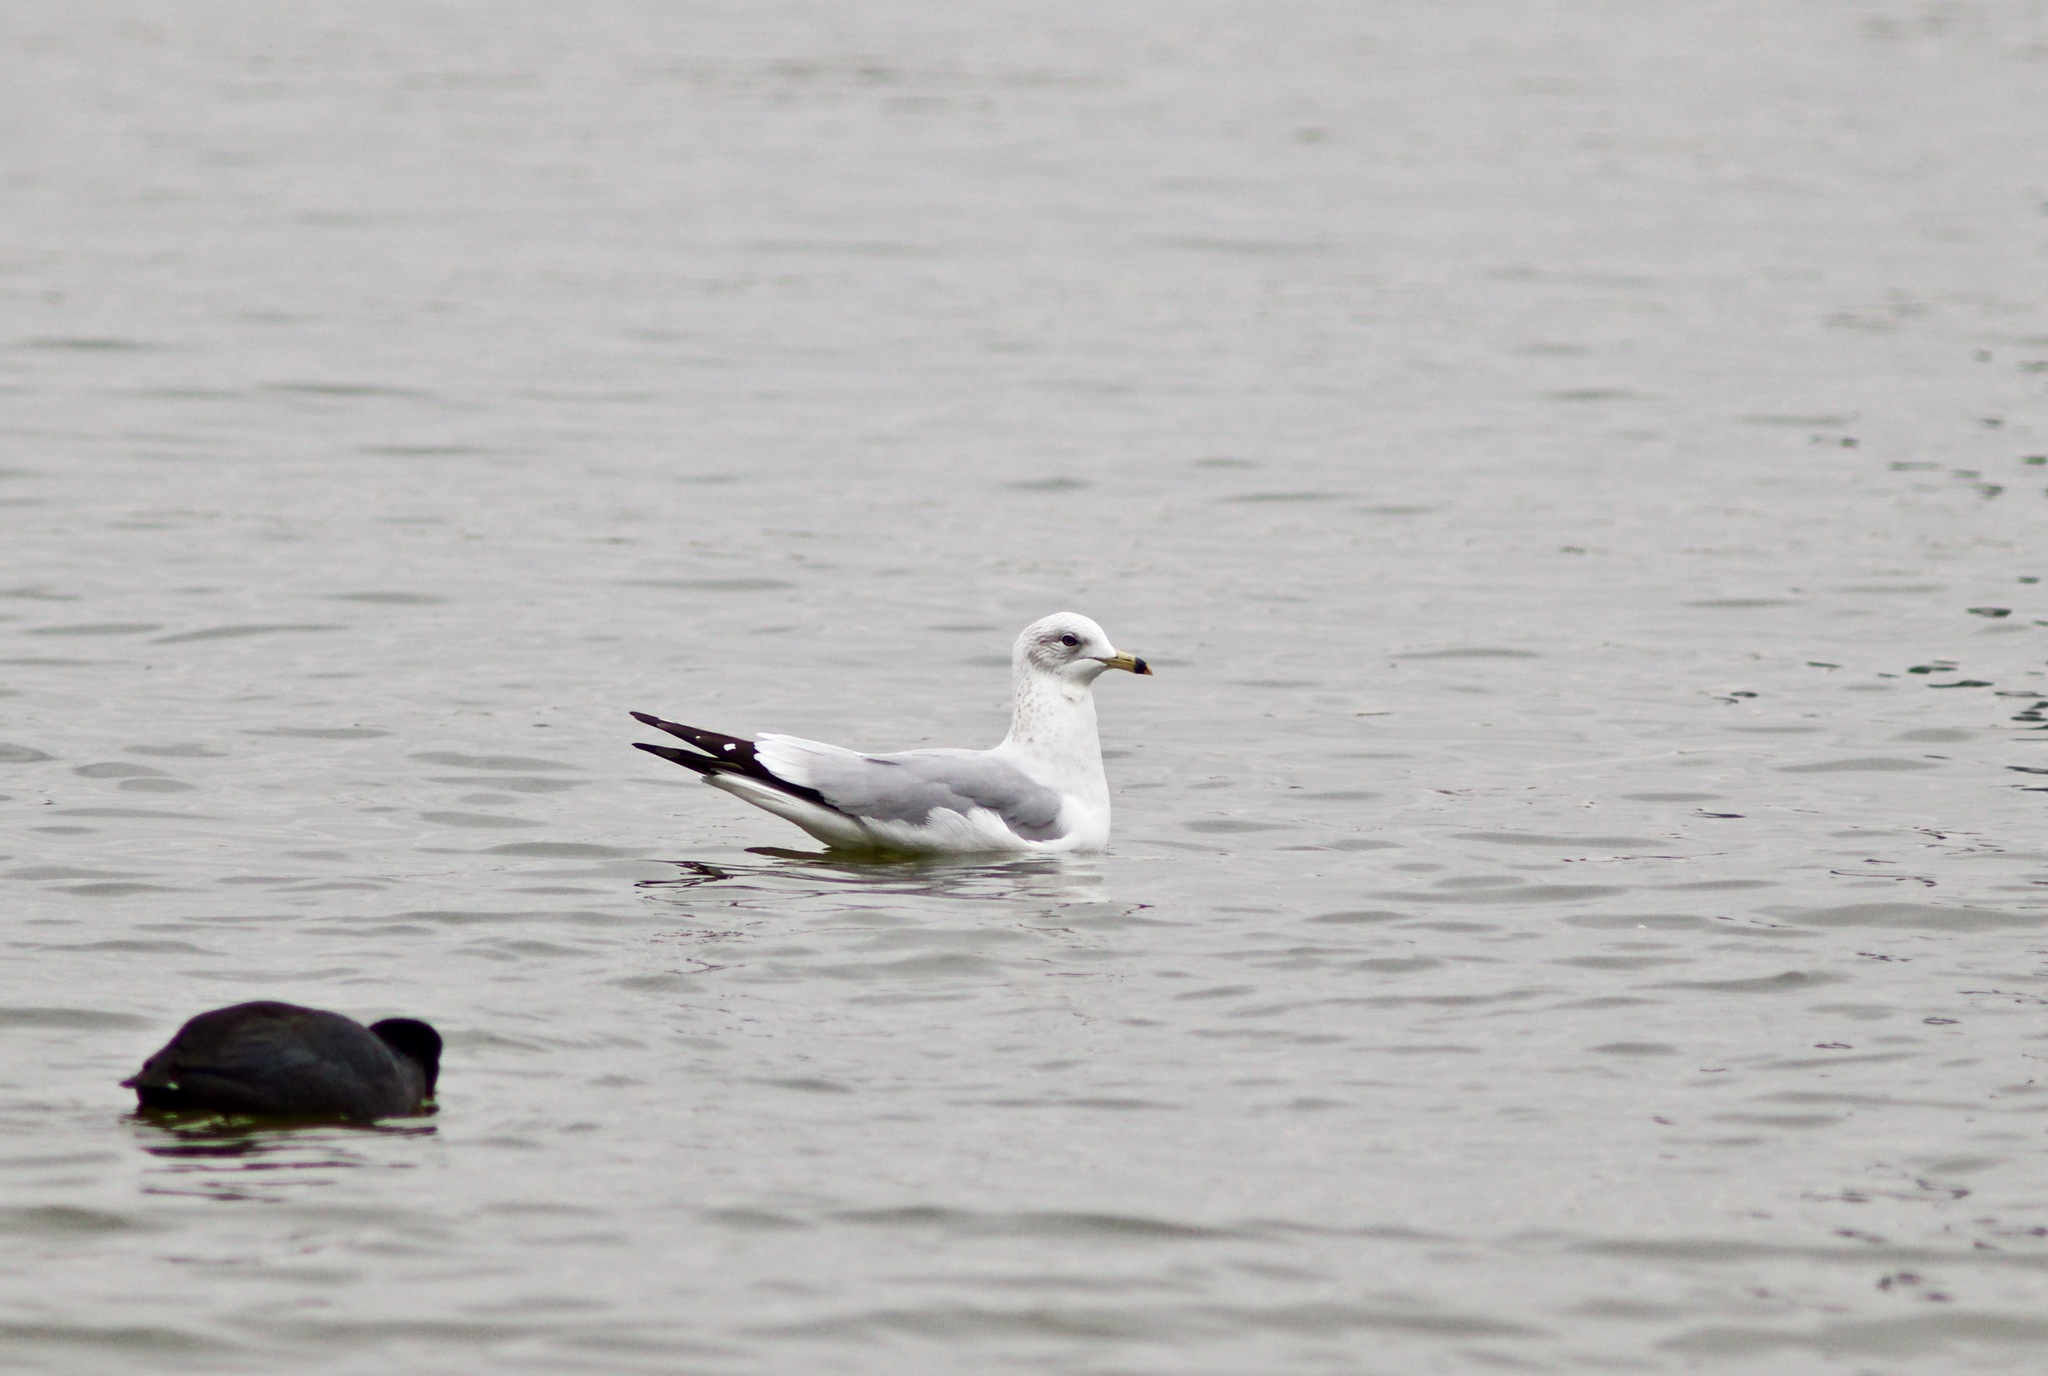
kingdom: Animalia
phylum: Chordata
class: Aves
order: Charadriiformes
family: Laridae
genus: Larus
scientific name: Larus delawarensis
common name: Ring-billed gull
